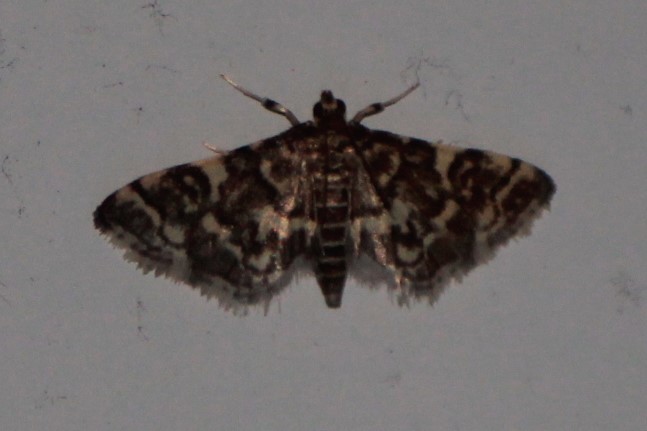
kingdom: Animalia
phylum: Arthropoda
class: Insecta
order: Lepidoptera
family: Crambidae
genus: Anageshna
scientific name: Anageshna primordialis
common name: Yellow-spotted webworm moth
